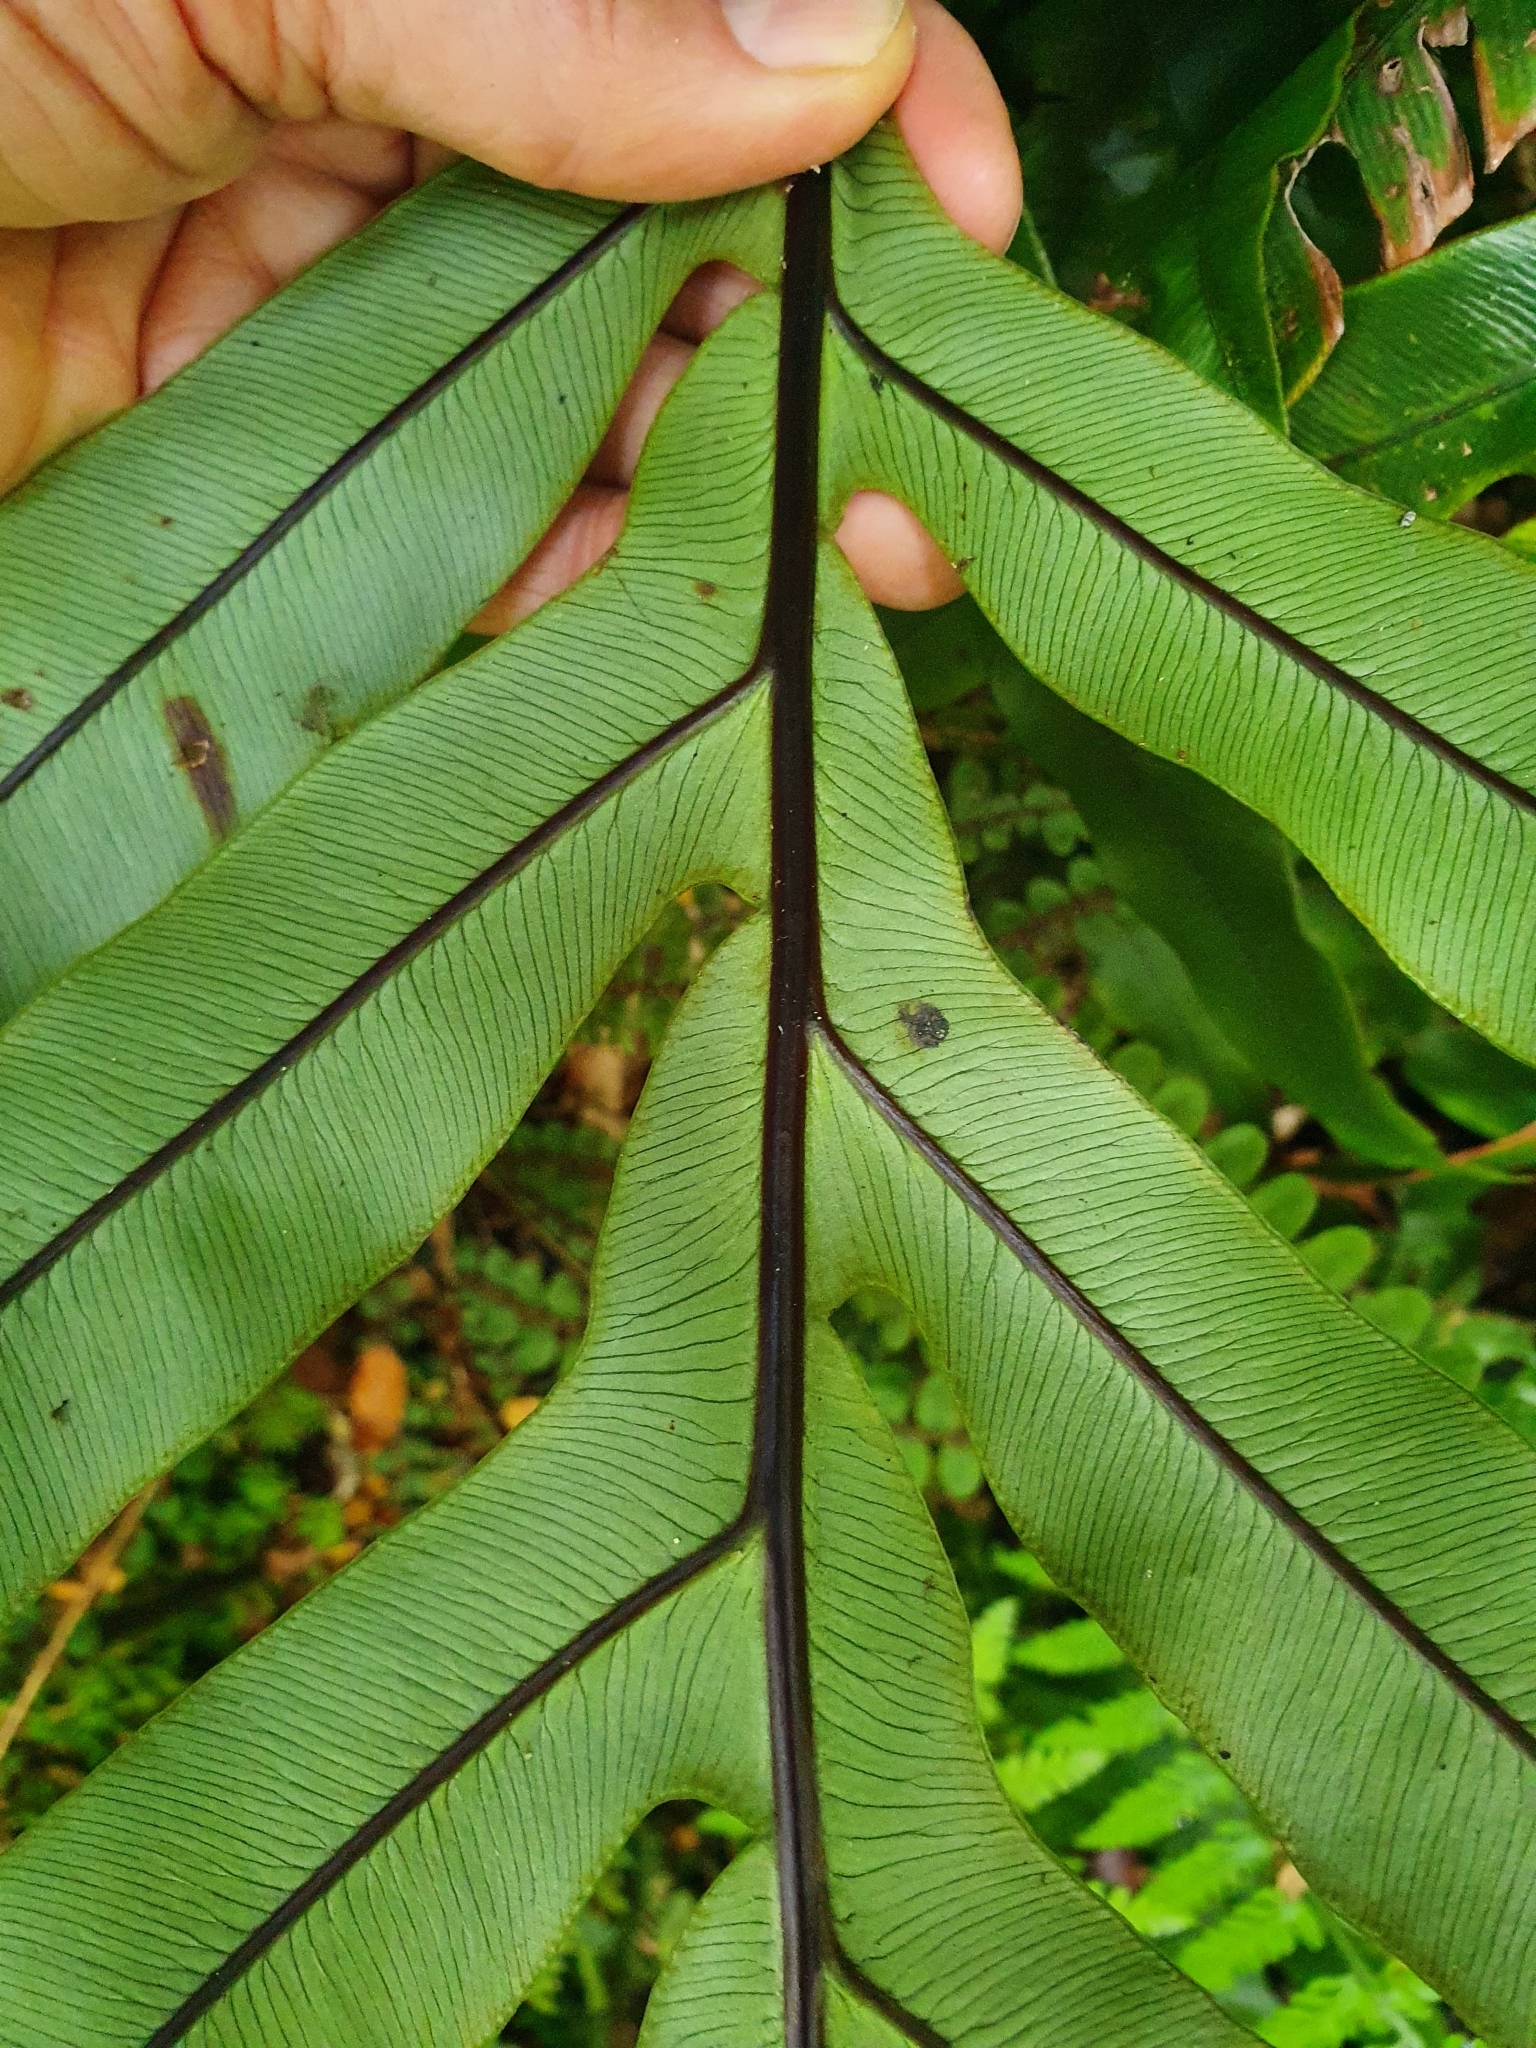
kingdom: Plantae
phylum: Tracheophyta
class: Polypodiopsida
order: Polypodiales
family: Blechnaceae
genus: Austroblechnum
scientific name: Austroblechnum colensoi
